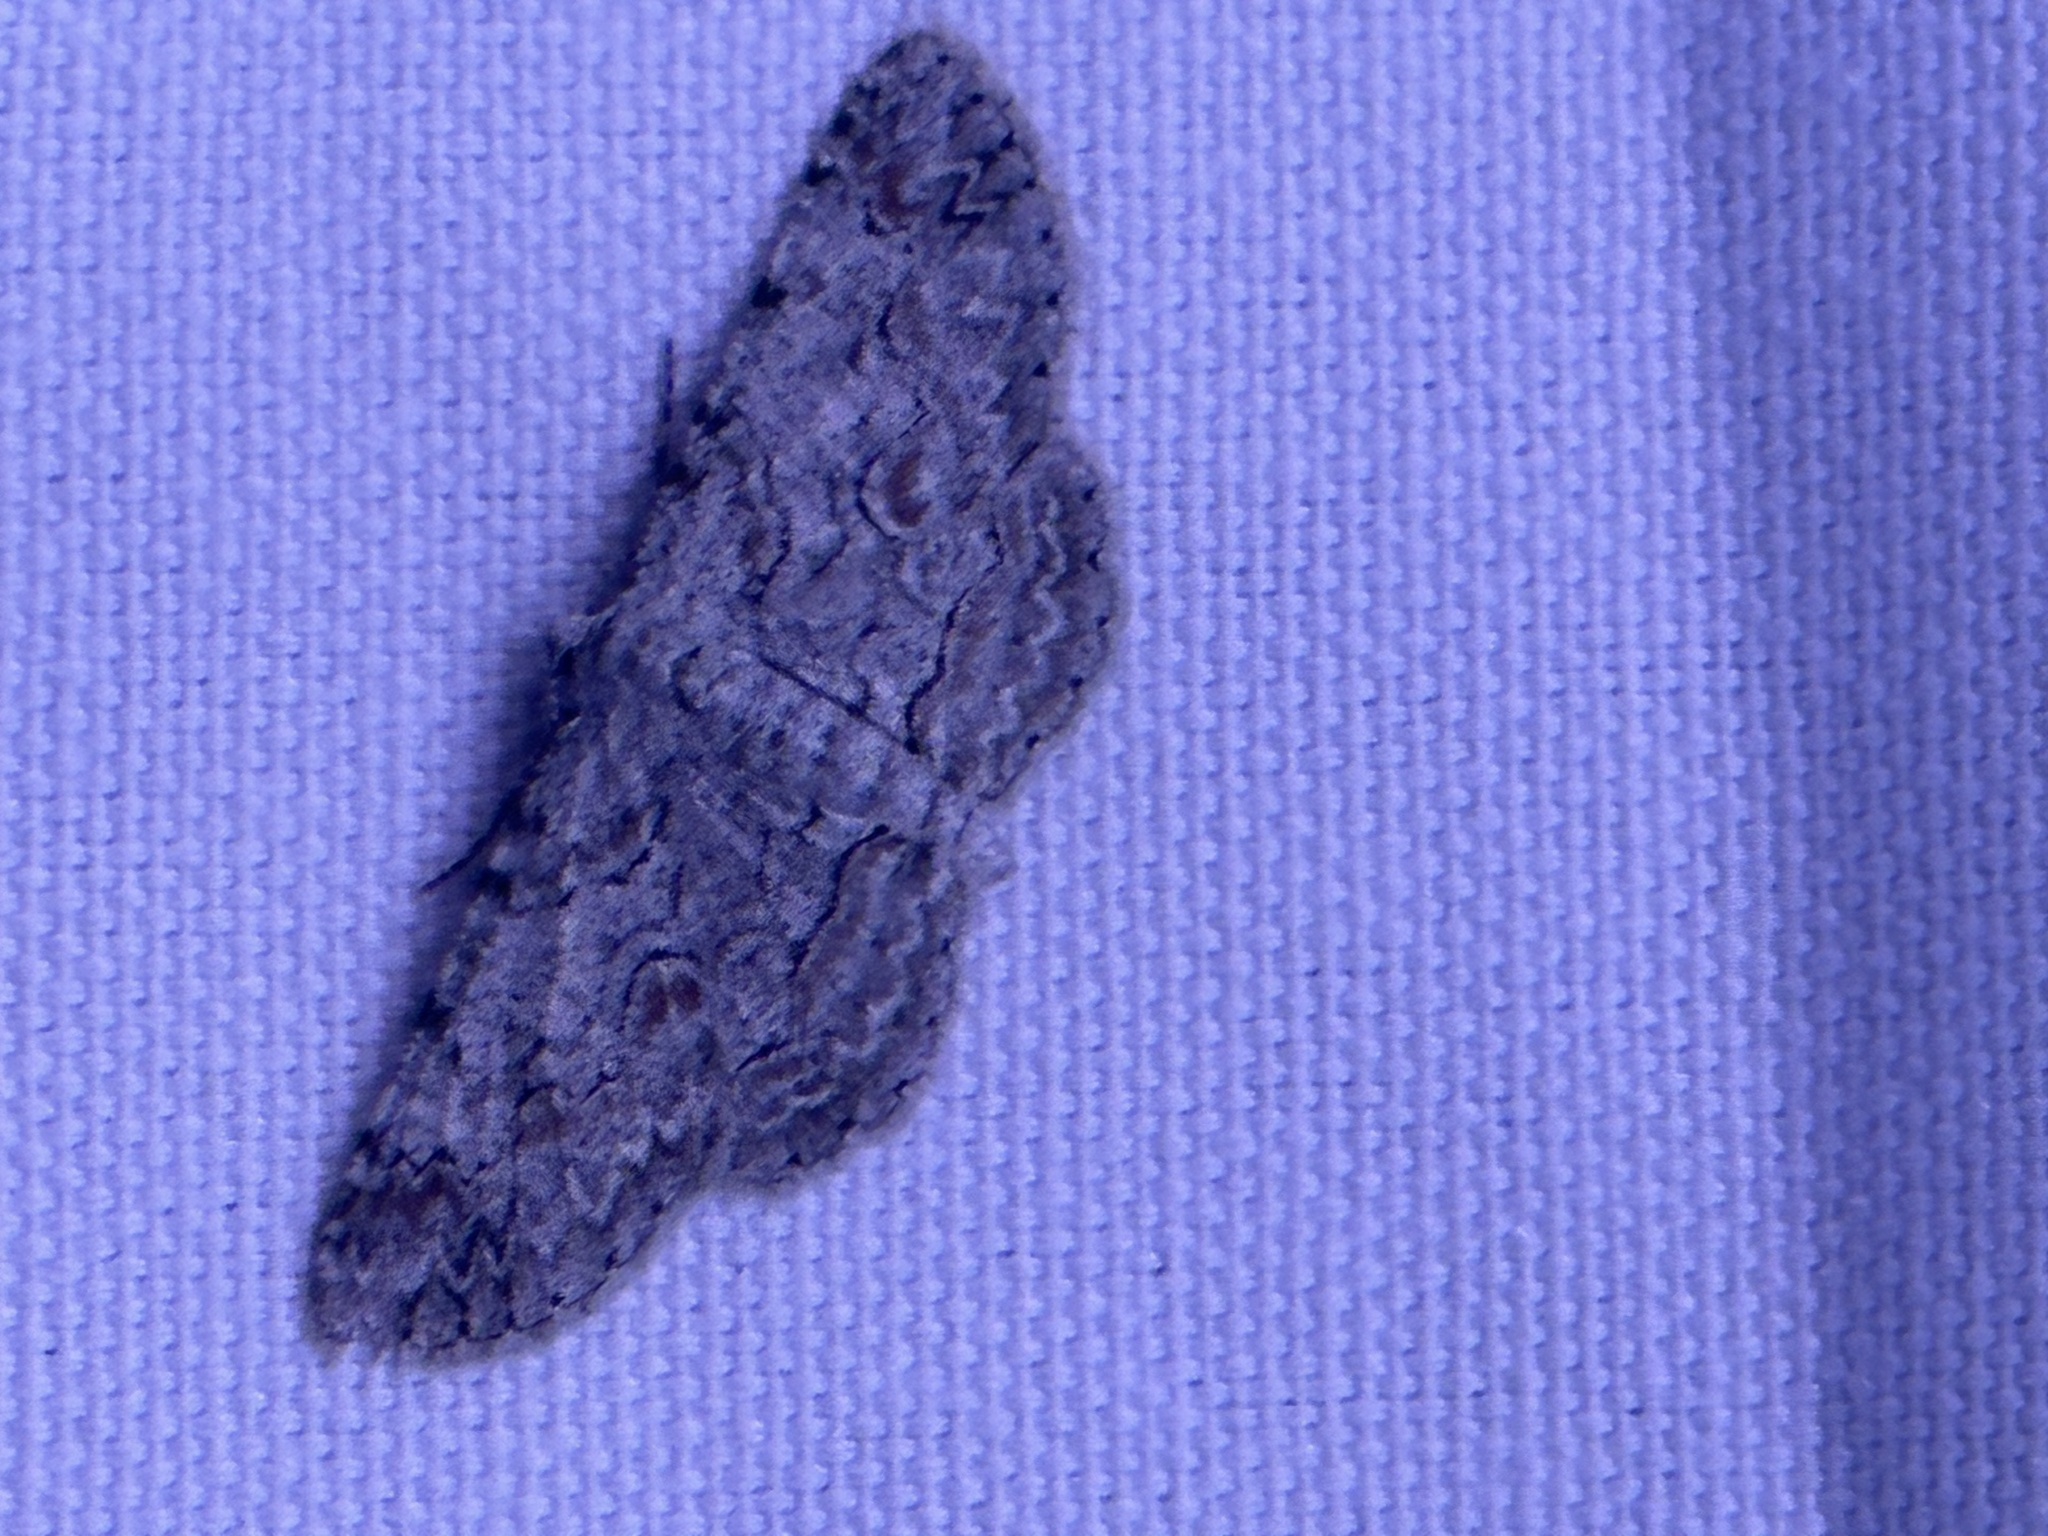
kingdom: Animalia
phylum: Arthropoda
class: Insecta
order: Lepidoptera
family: Geometridae
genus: Iridopsis
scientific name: Iridopsis defectaria
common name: Brown-shaded gray
